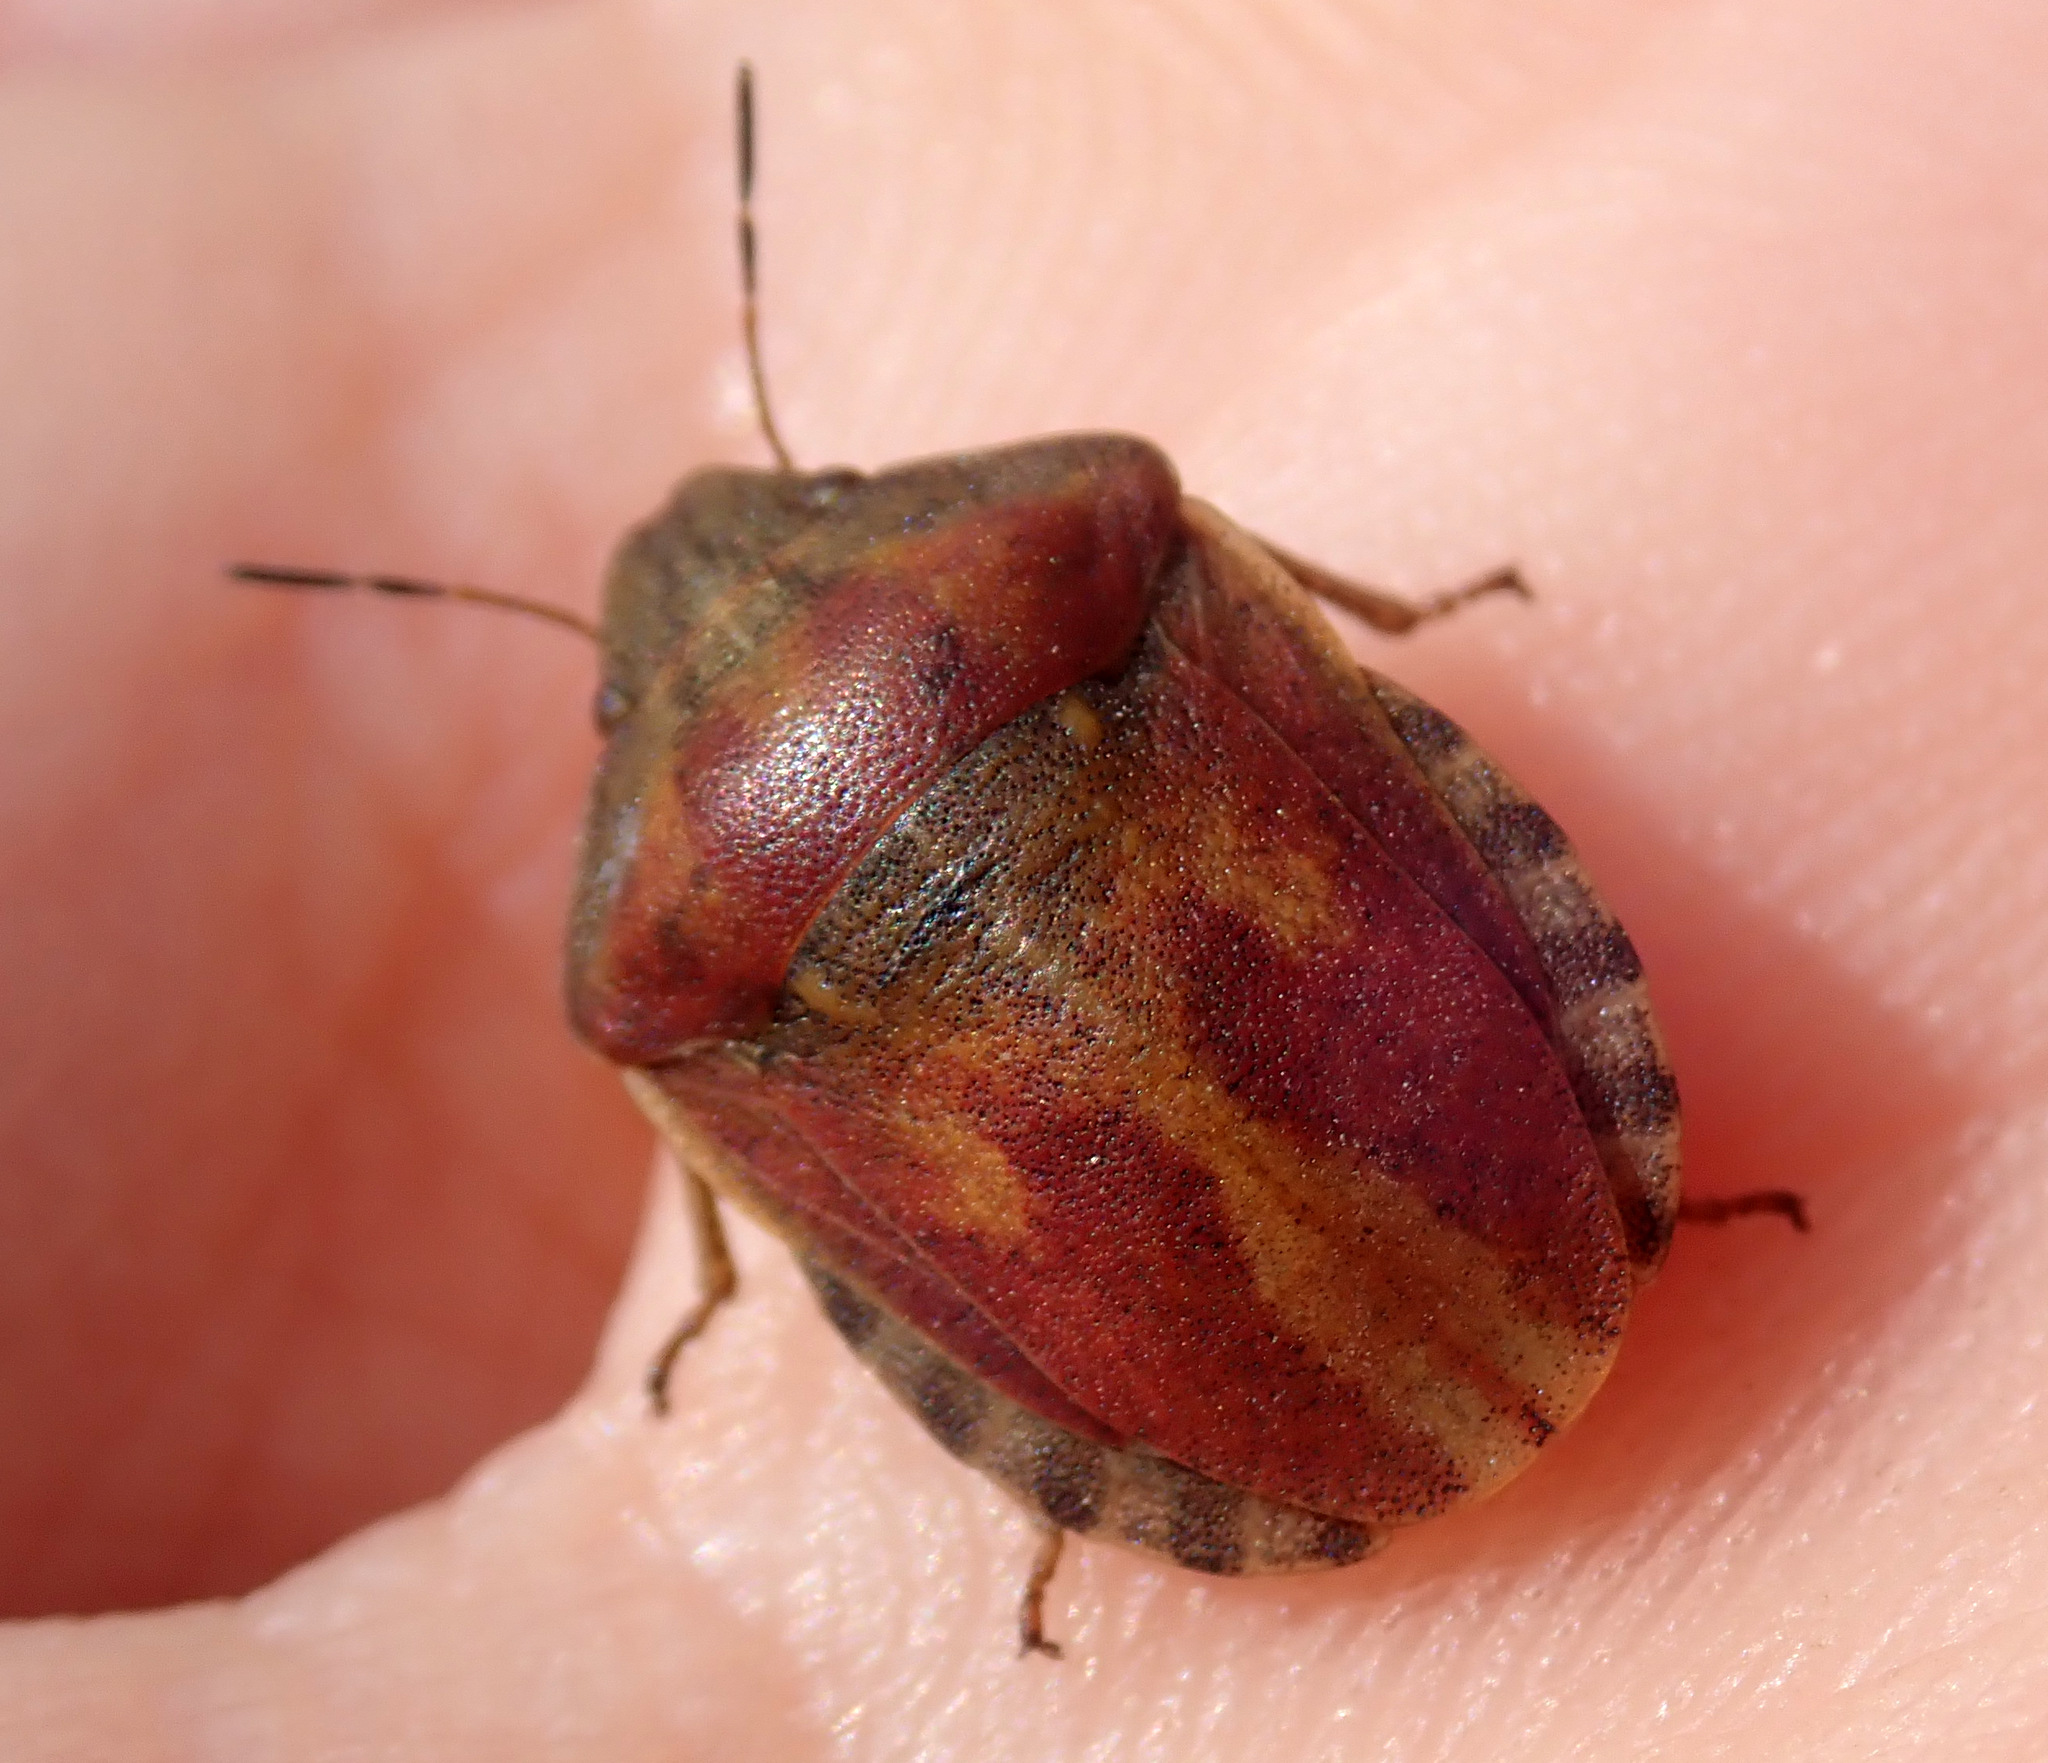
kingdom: Animalia
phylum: Arthropoda
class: Insecta
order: Hemiptera
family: Scutelleridae
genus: Eurygaster
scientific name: Eurygaster testudinaria
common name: Tortoise bug
